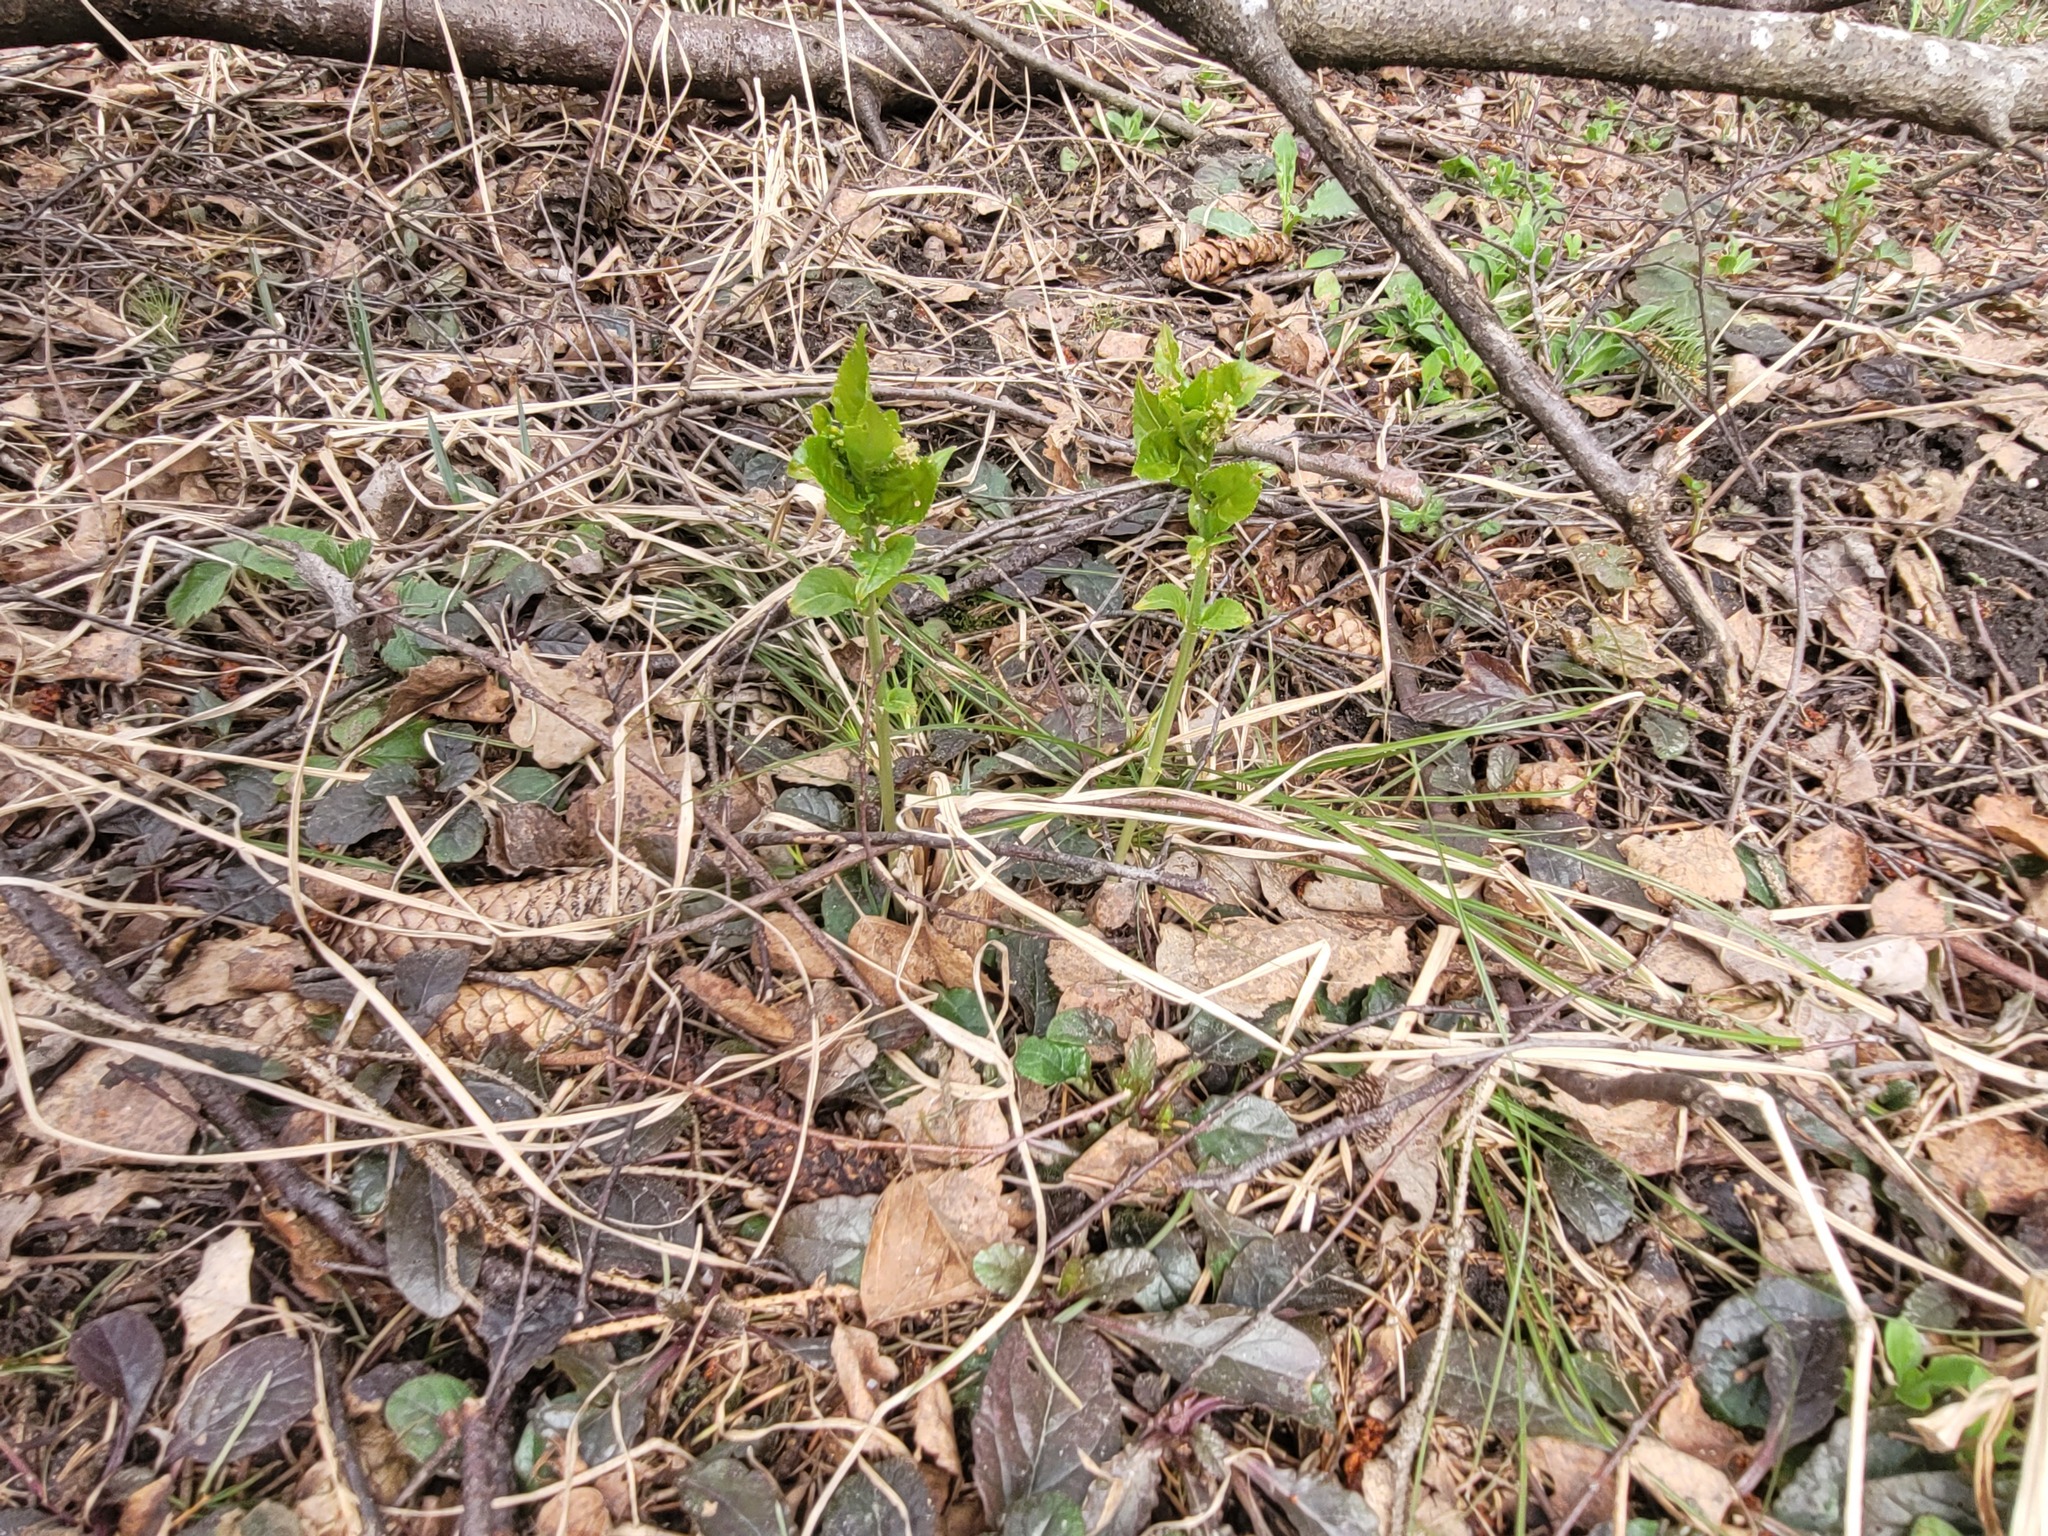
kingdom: Plantae
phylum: Tracheophyta
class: Magnoliopsida
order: Malpighiales
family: Euphorbiaceae
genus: Mercurialis
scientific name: Mercurialis perennis
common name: Dog mercury
